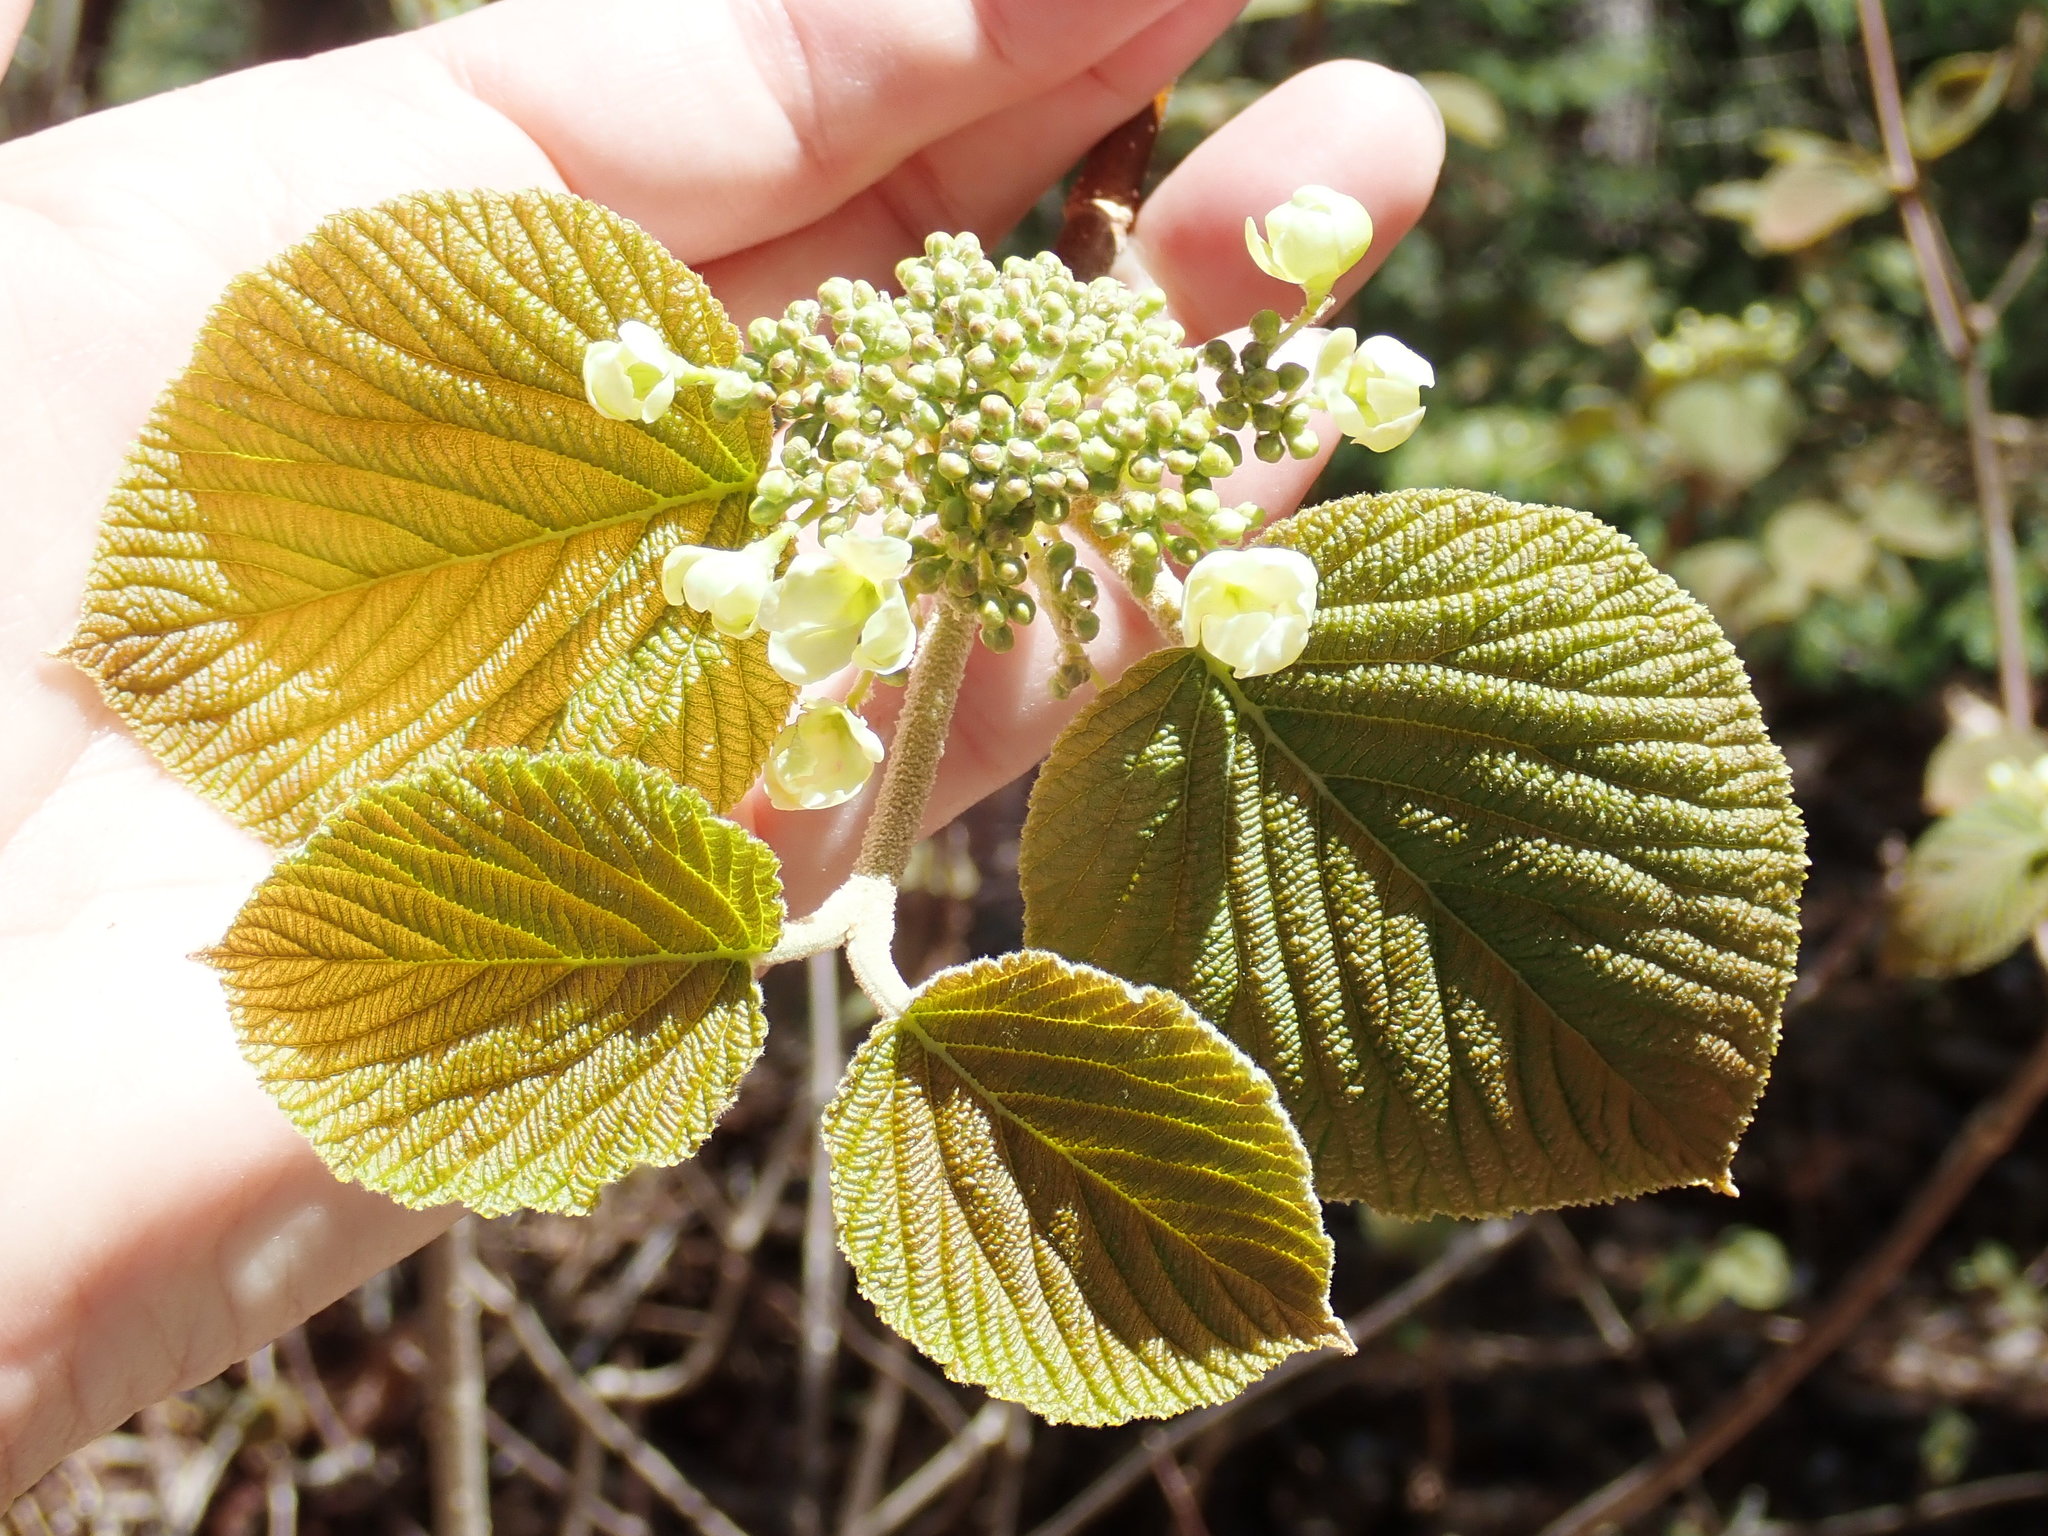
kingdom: Plantae
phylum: Tracheophyta
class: Magnoliopsida
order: Dipsacales
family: Viburnaceae
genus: Viburnum
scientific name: Viburnum lantanoides
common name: Hobblebush
